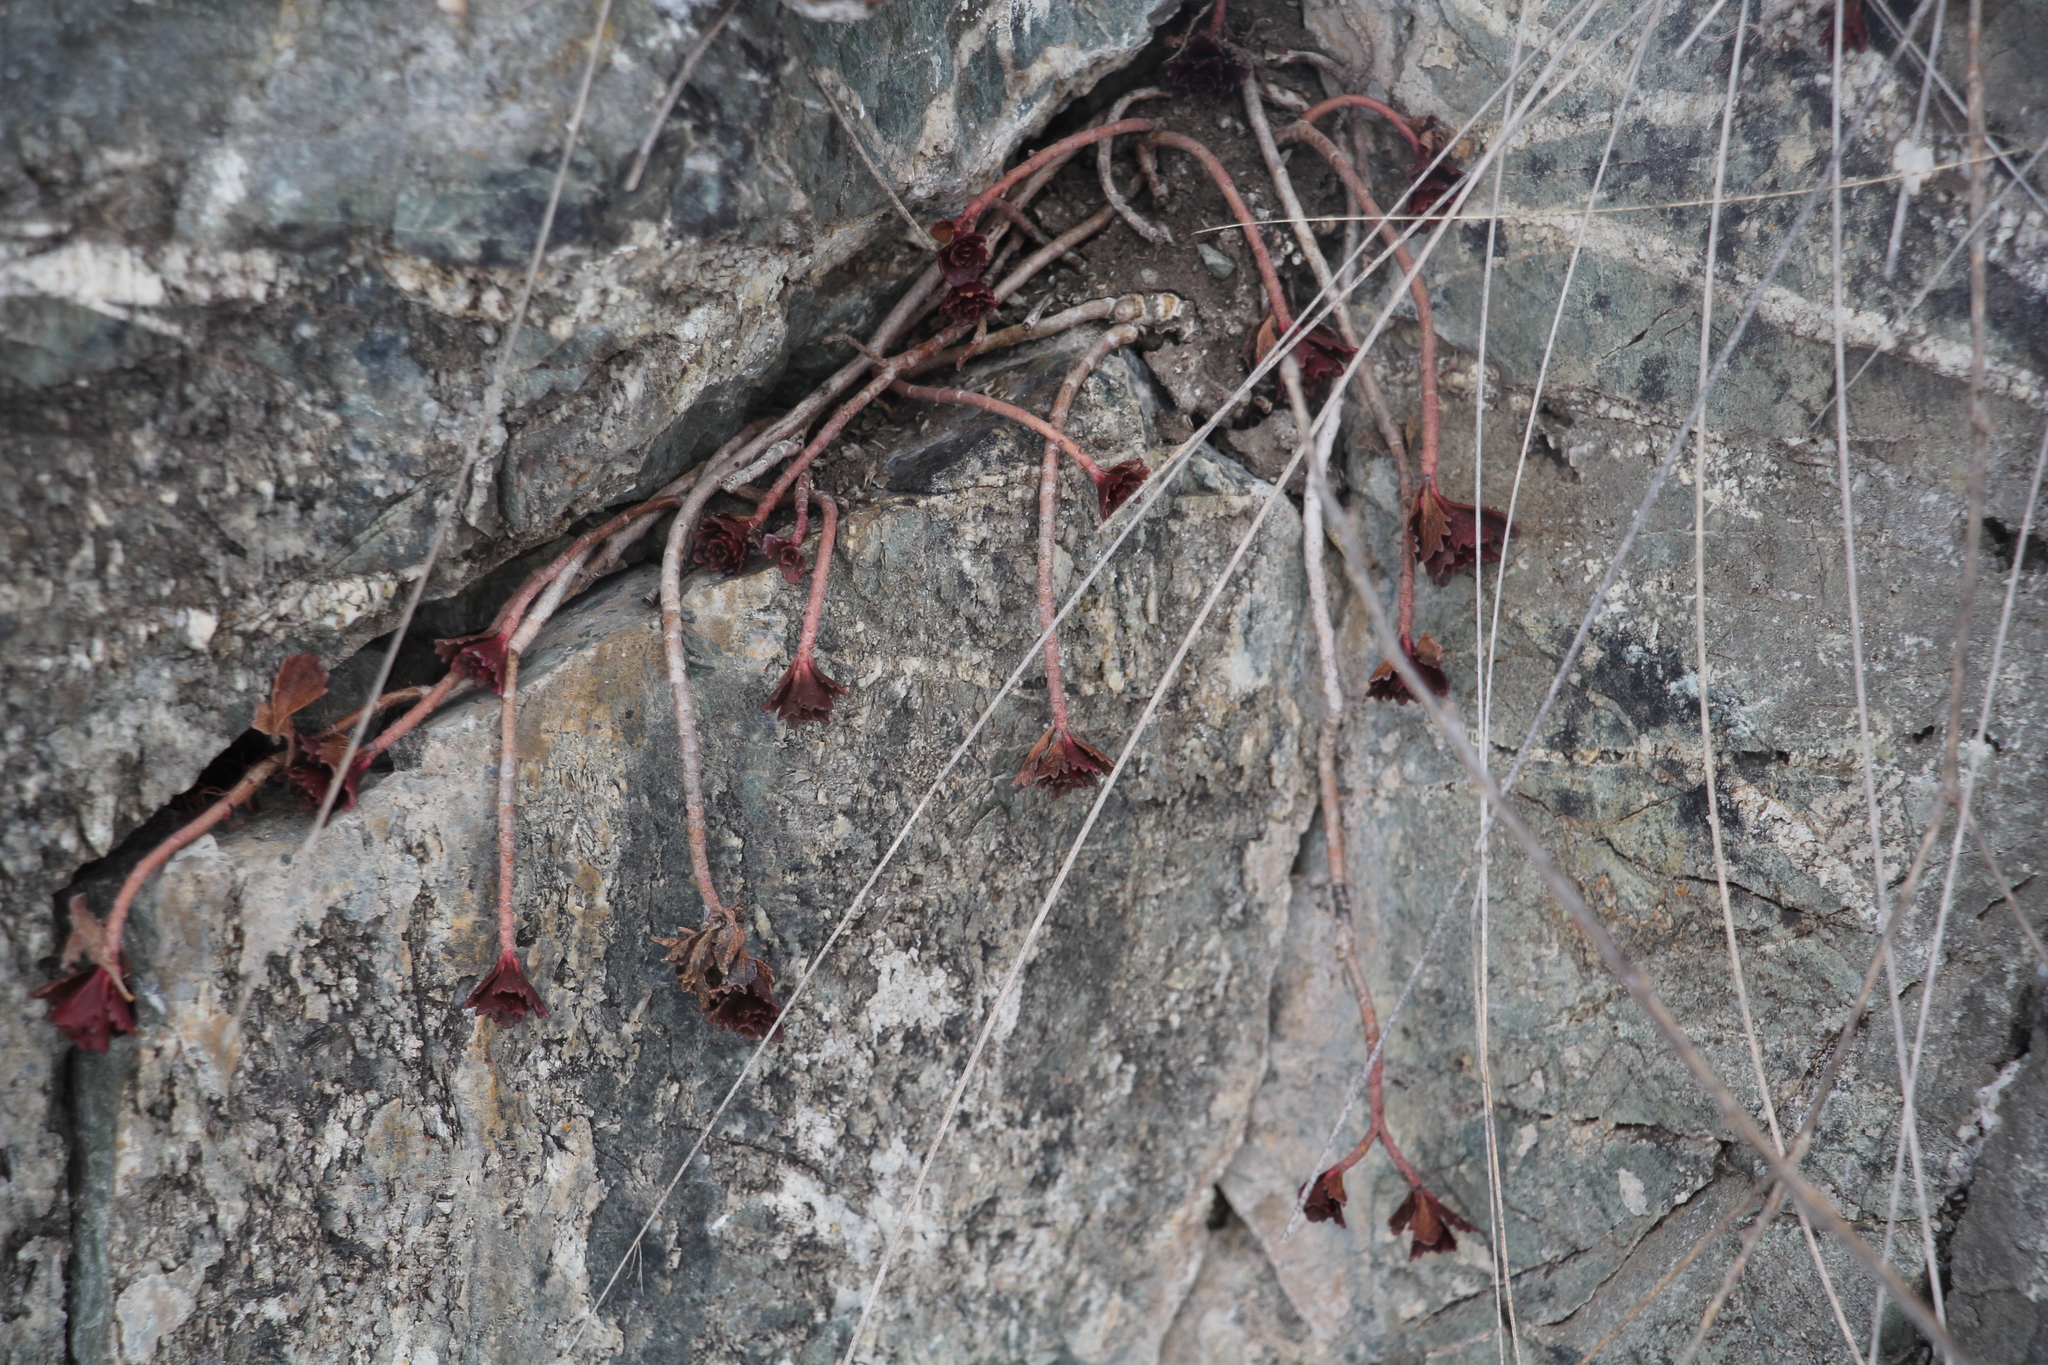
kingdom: Plantae
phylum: Tracheophyta
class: Magnoliopsida
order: Saxifragales
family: Crassulaceae
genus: Phedimus
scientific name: Phedimus hybridus
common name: Hybrid stonecrop
